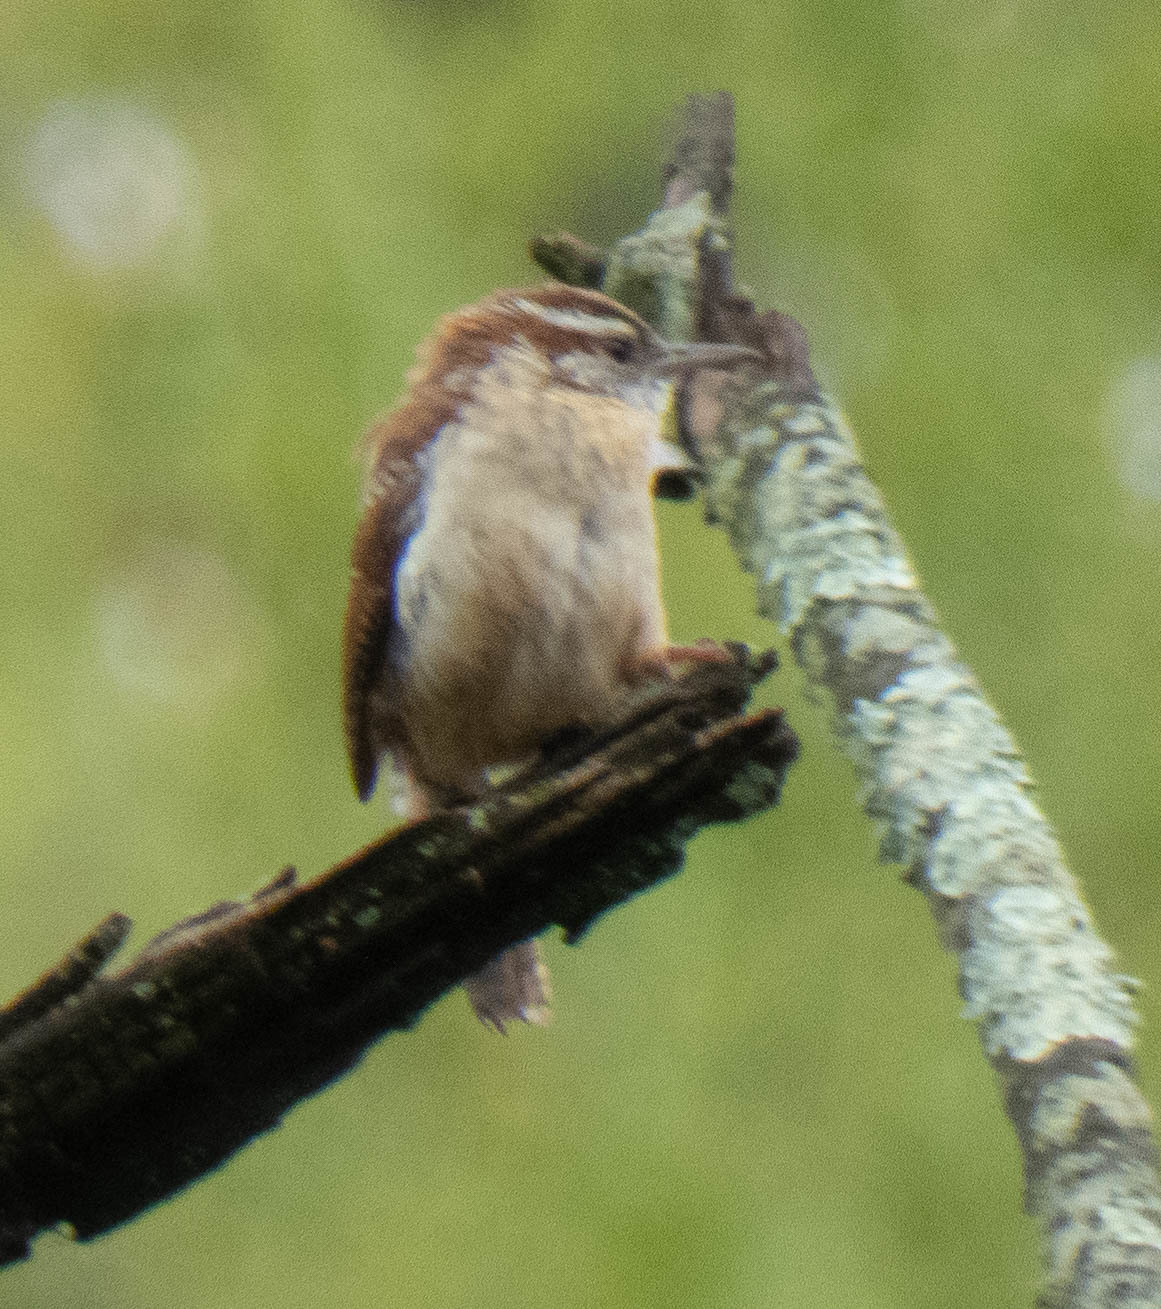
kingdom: Animalia
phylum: Chordata
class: Aves
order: Passeriformes
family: Troglodytidae
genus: Thryothorus
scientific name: Thryothorus ludovicianus
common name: Carolina wren
